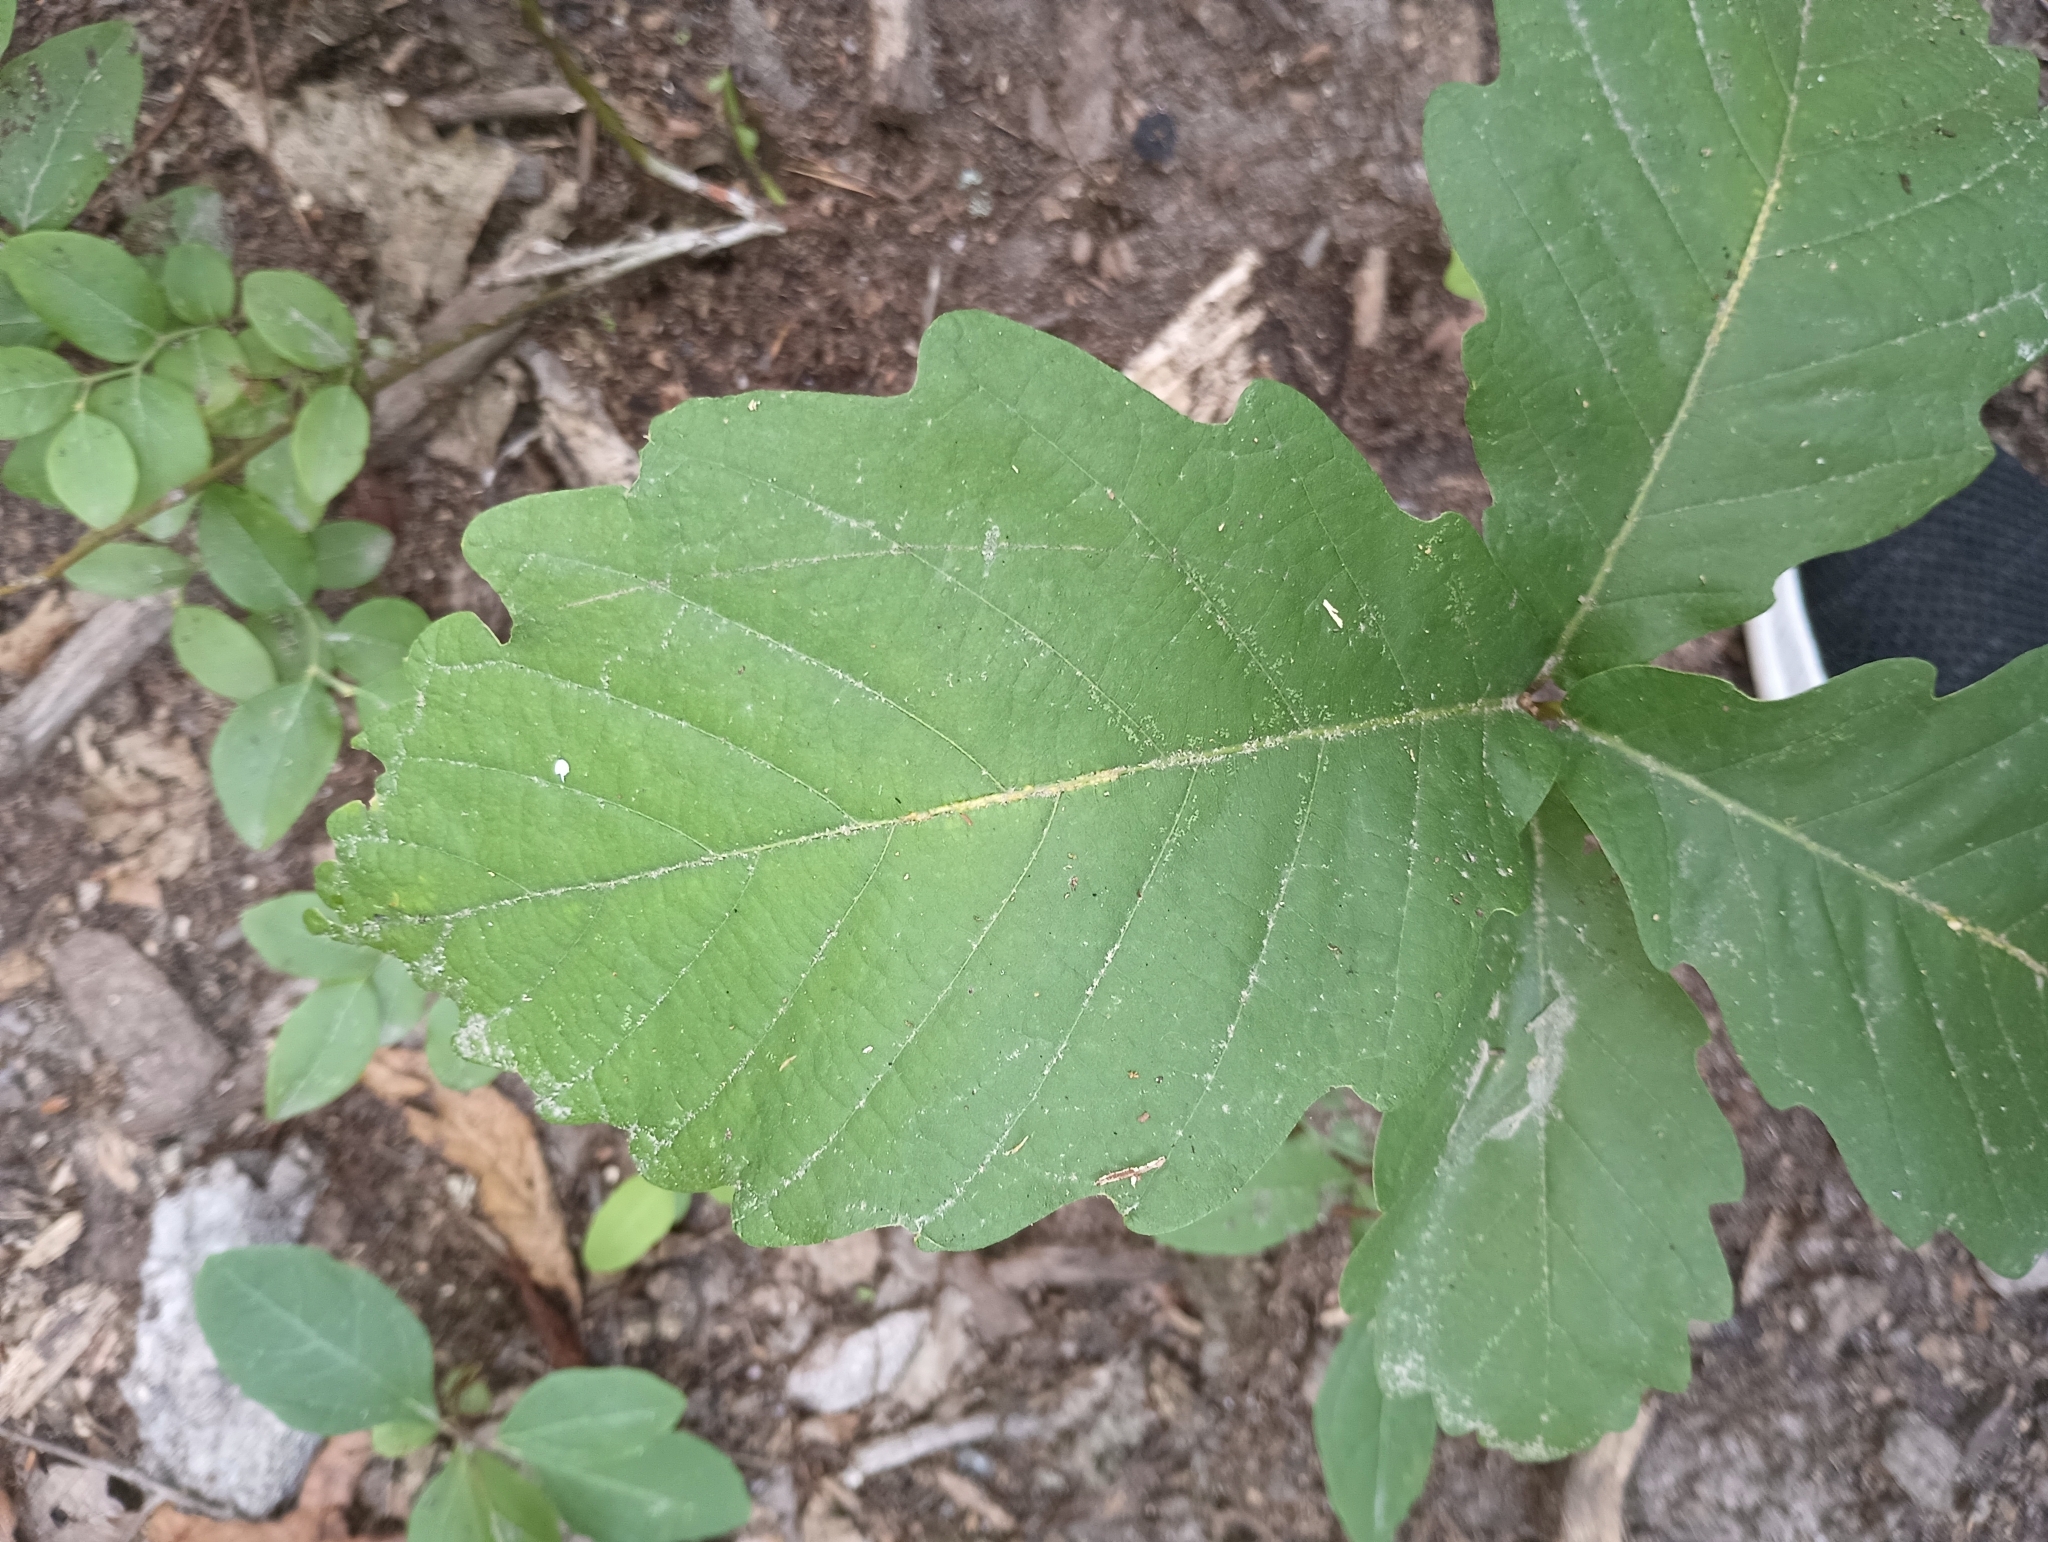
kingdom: Plantae
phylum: Tracheophyta
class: Magnoliopsida
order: Fagales
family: Fagaceae
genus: Quercus
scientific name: Quercus montana
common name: Chestnut oak
